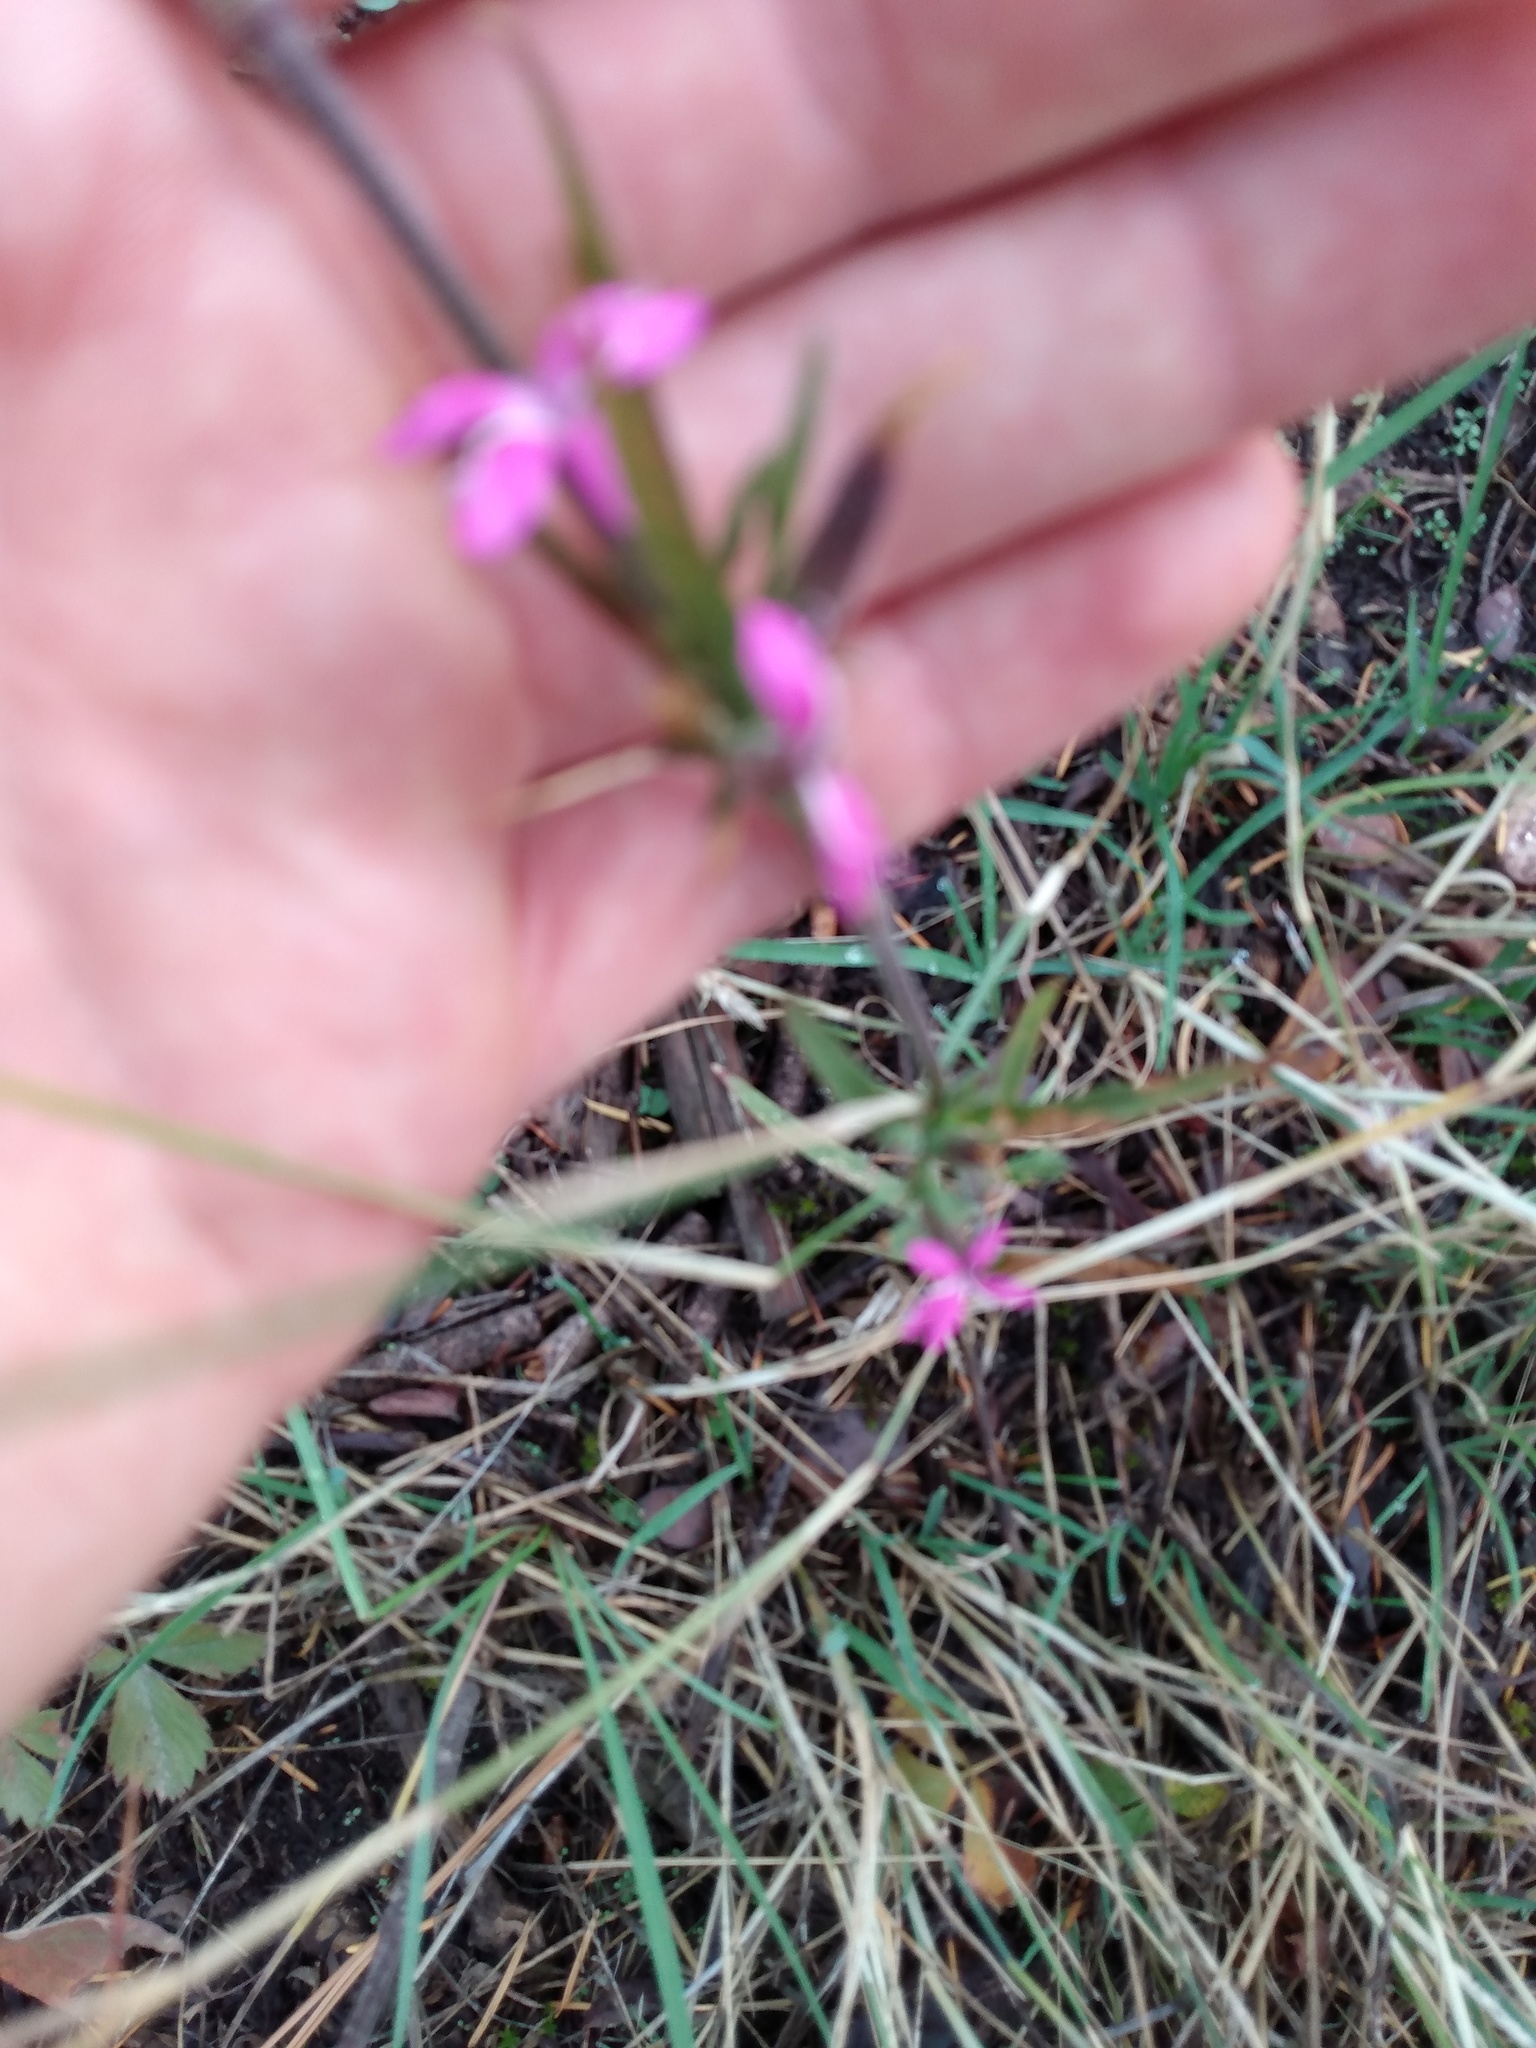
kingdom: Plantae
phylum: Tracheophyta
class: Magnoliopsida
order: Caryophyllales
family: Caryophyllaceae
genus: Dianthus
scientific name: Dianthus armeria
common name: Deptford pink
